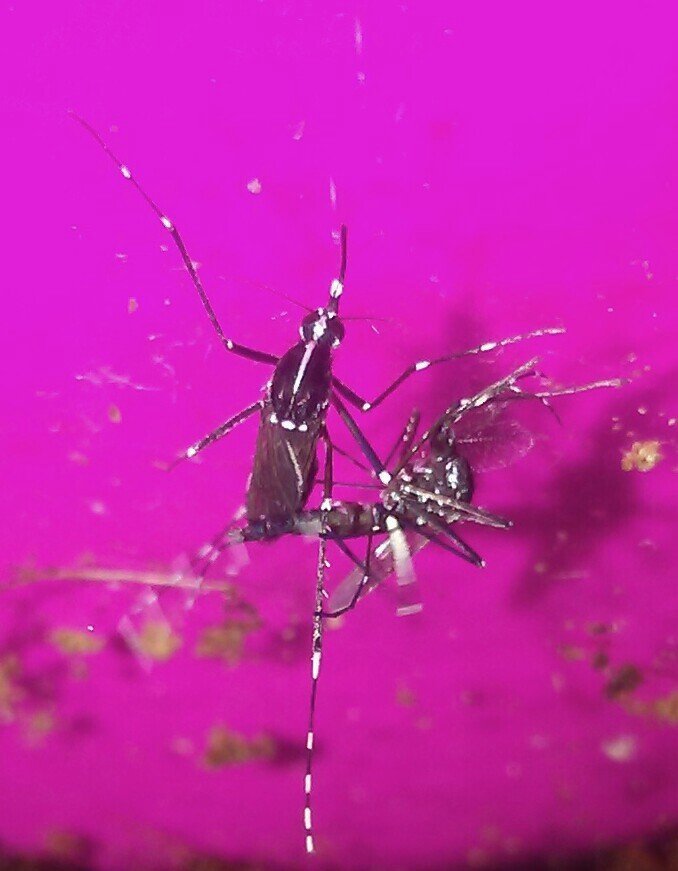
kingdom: Animalia
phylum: Arthropoda
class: Insecta
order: Diptera
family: Culicidae
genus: Aedes
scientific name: Aedes albopictus
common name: Tiger mosquito
